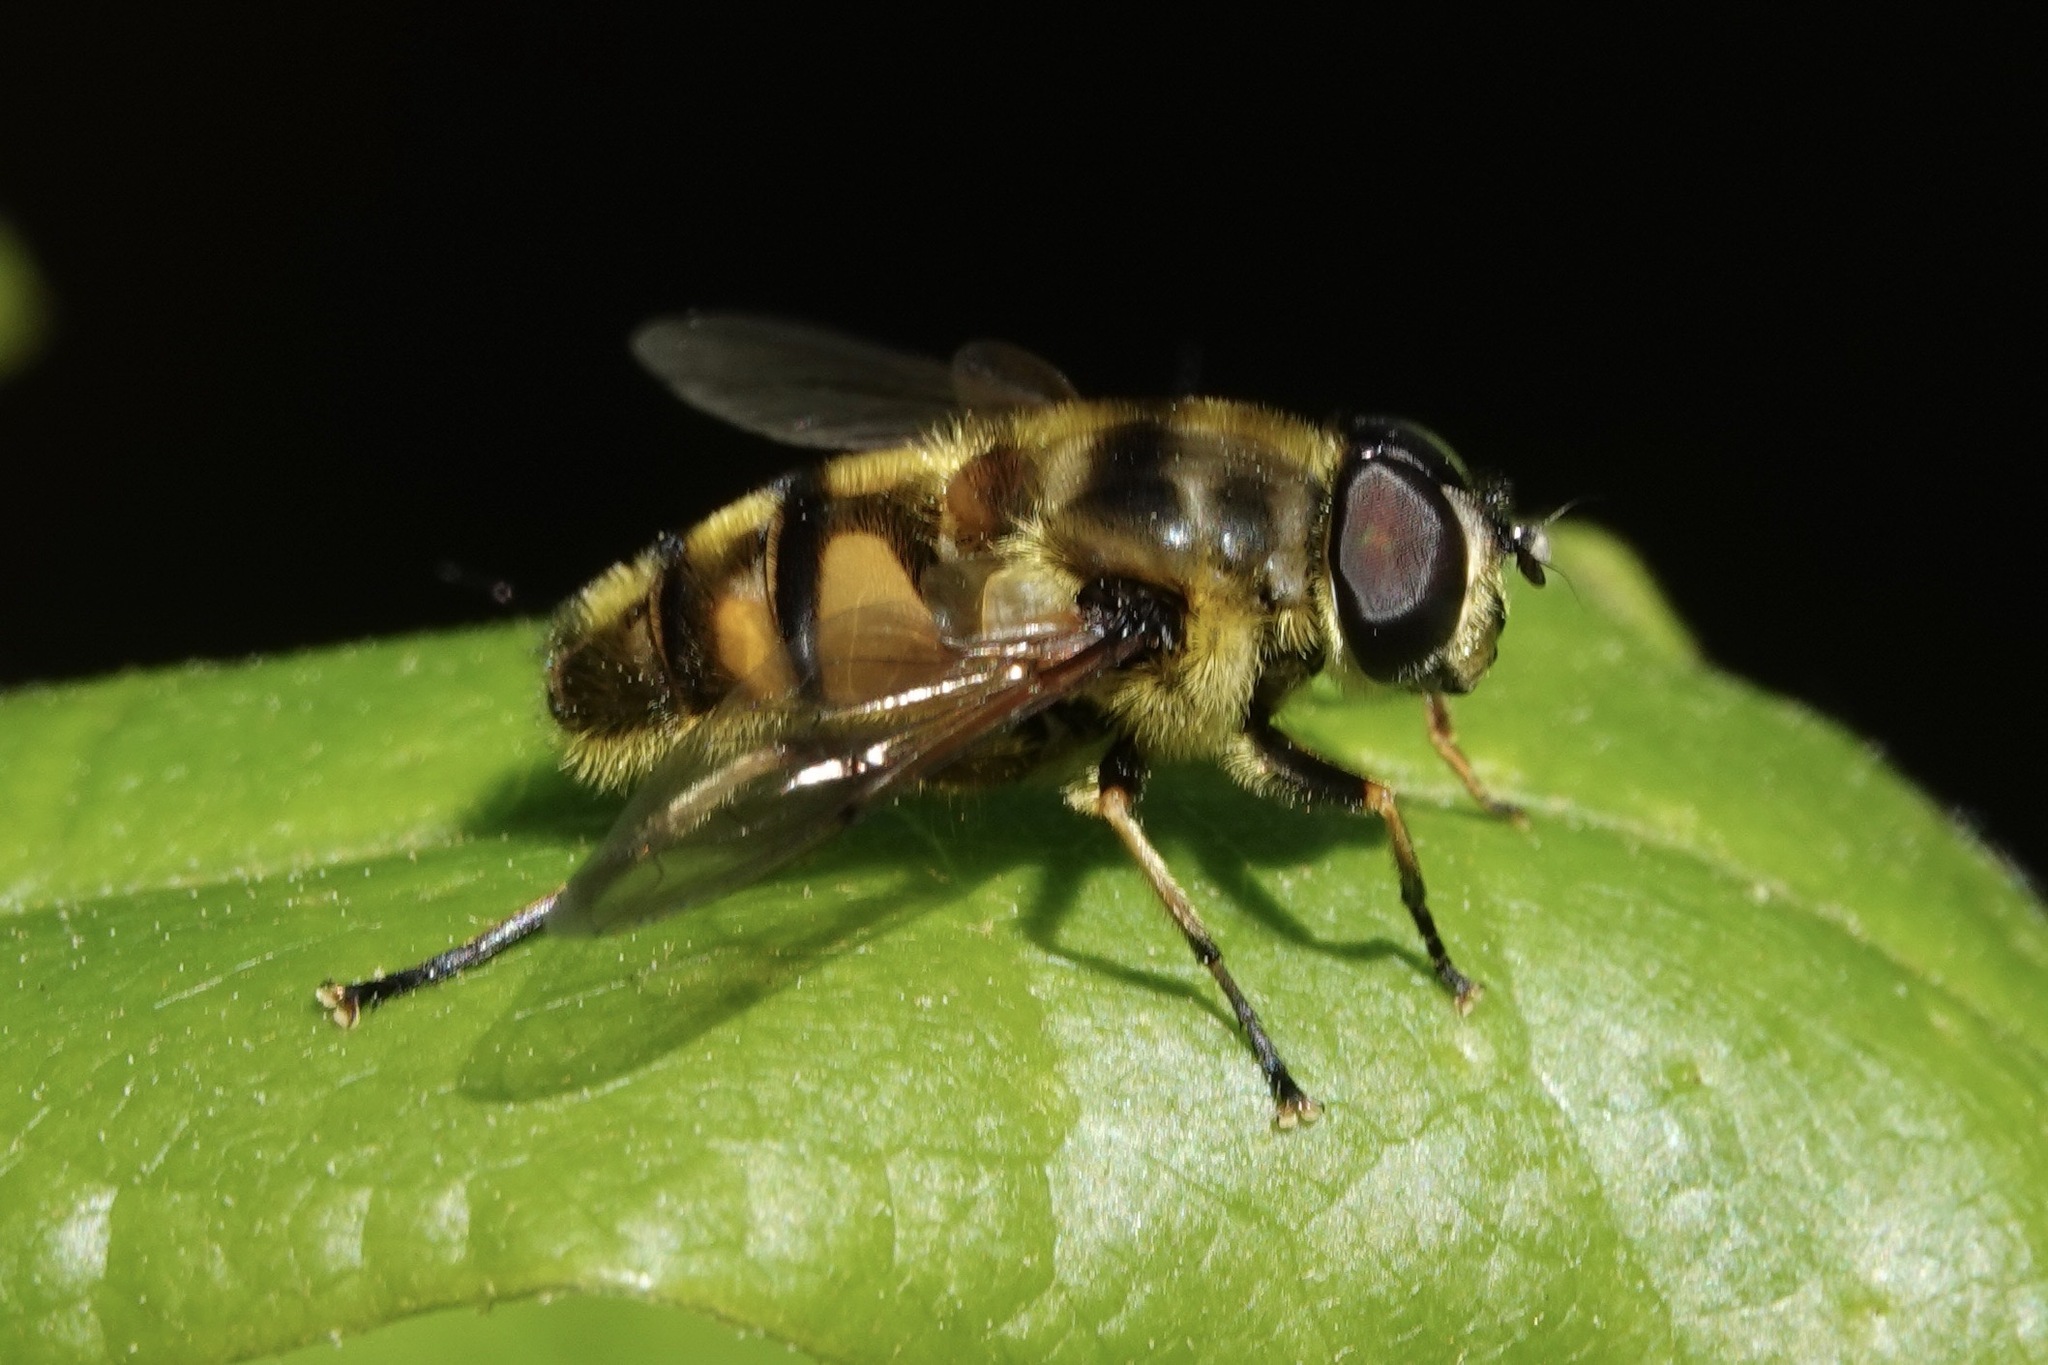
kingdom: Animalia
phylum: Arthropoda
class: Insecta
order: Diptera
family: Syrphidae
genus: Myathropa
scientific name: Myathropa florea
